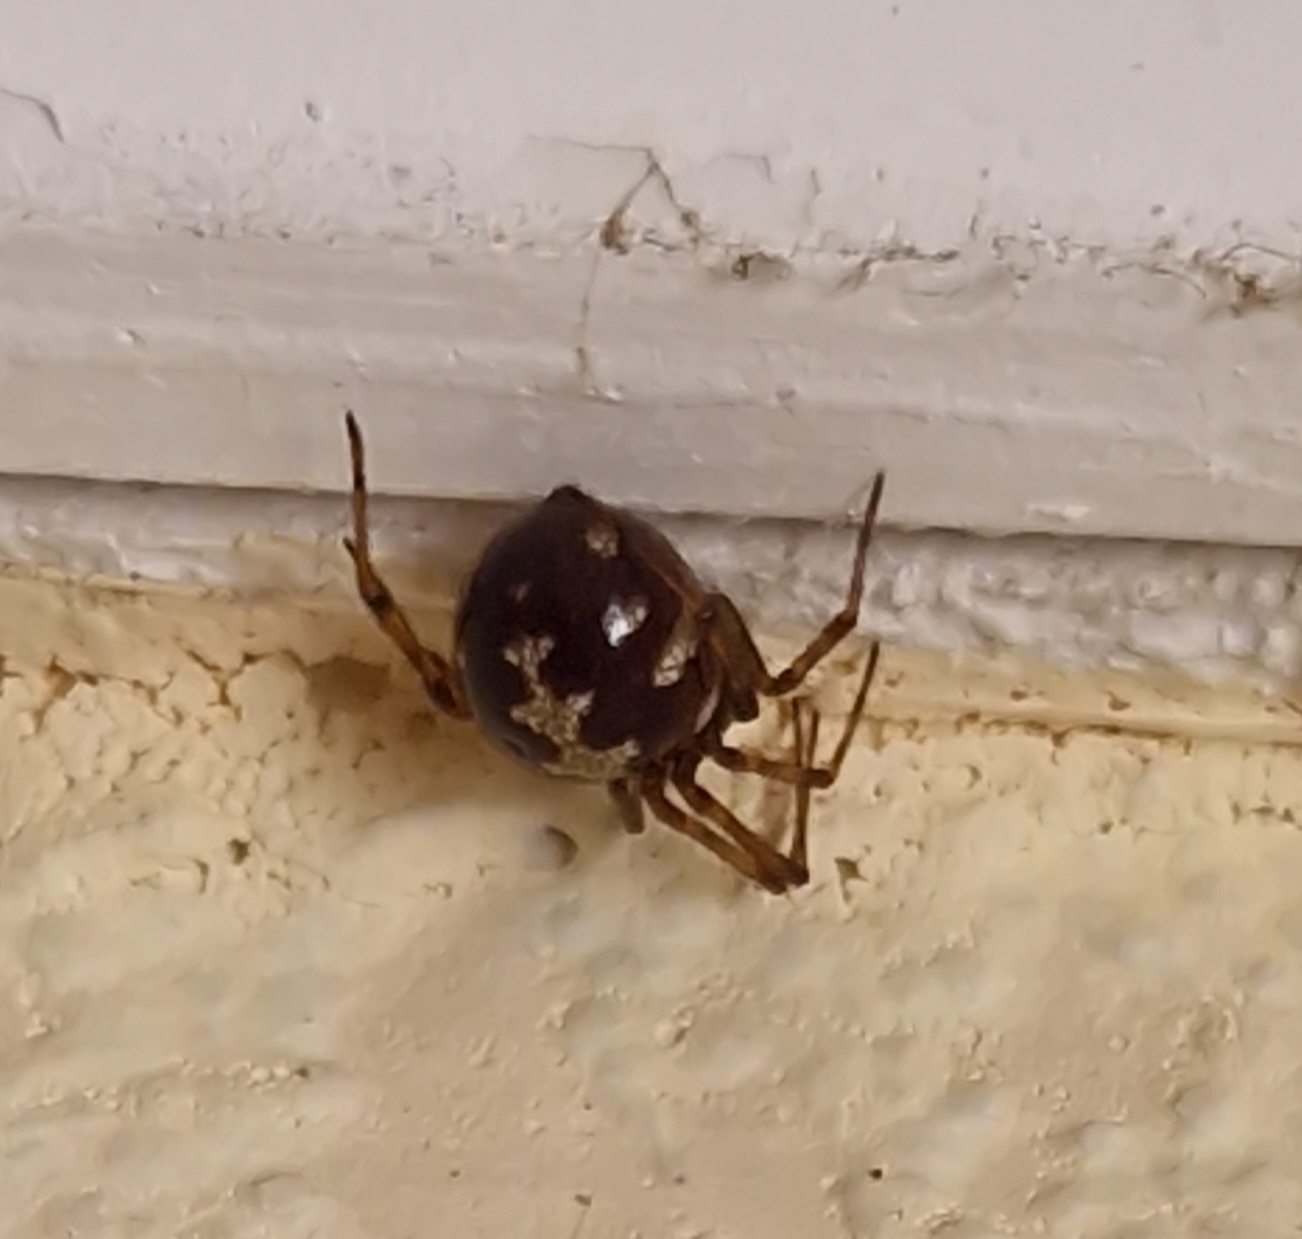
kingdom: Animalia
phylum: Arthropoda
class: Arachnida
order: Araneae
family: Theridiidae
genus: Steatoda
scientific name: Steatoda triangulosa
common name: Triangulate bud spider
